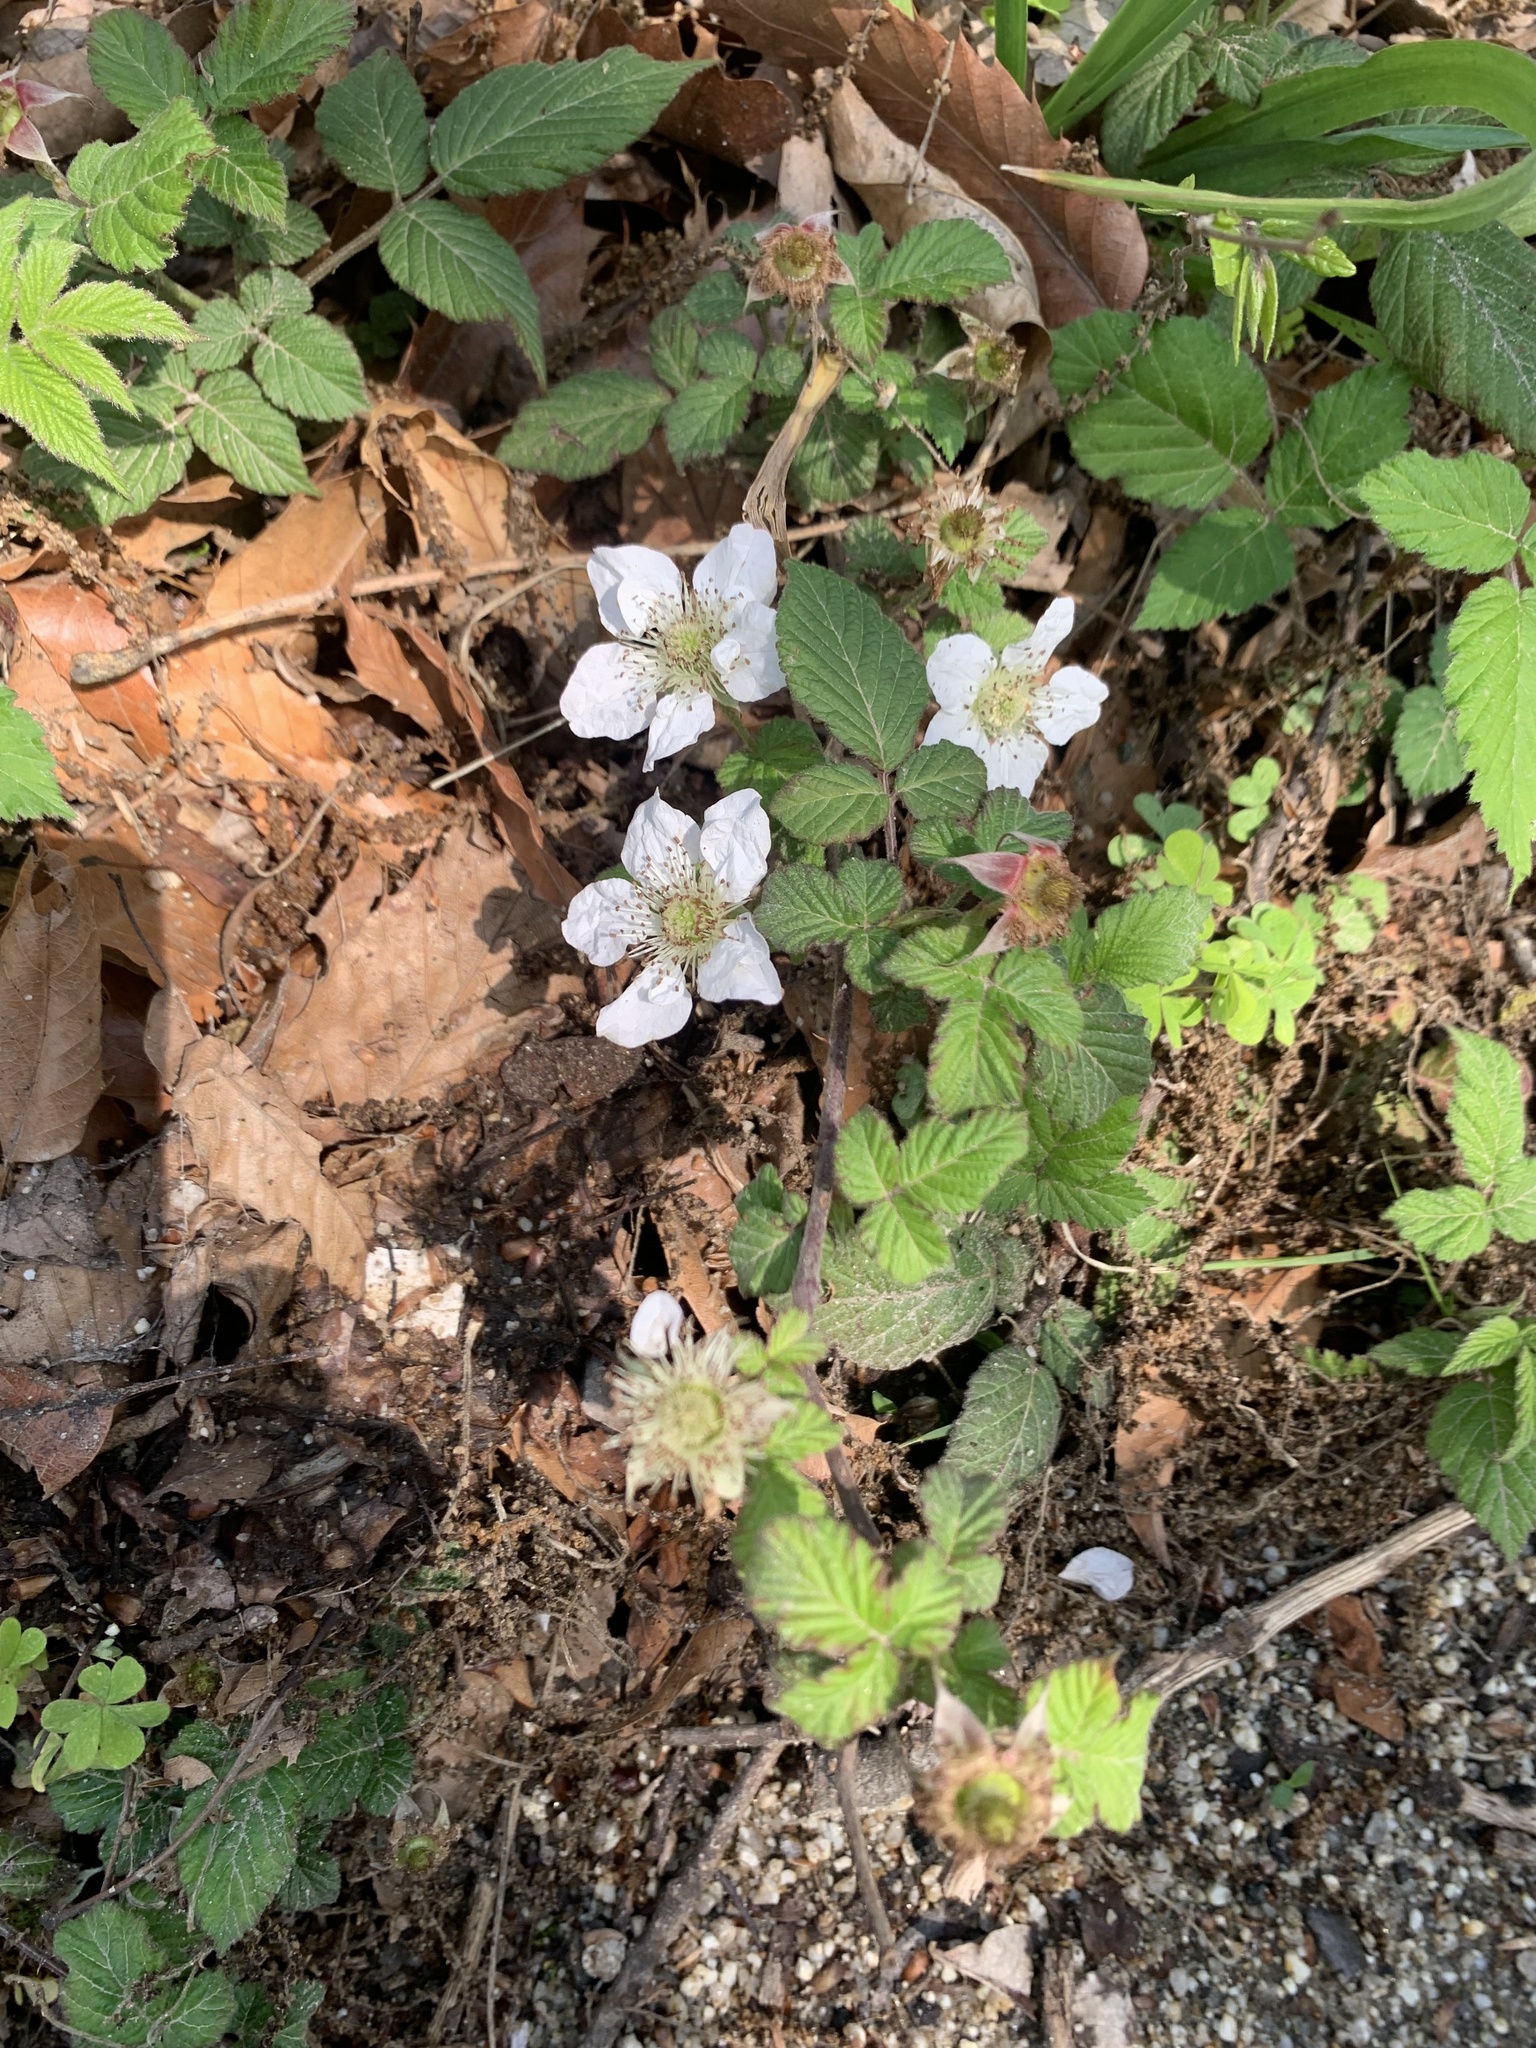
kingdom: Plantae
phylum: Tracheophyta
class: Magnoliopsida
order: Rosales
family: Rosaceae
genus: Rubus
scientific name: Rubus hirsutus
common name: Hirsute raspberry
